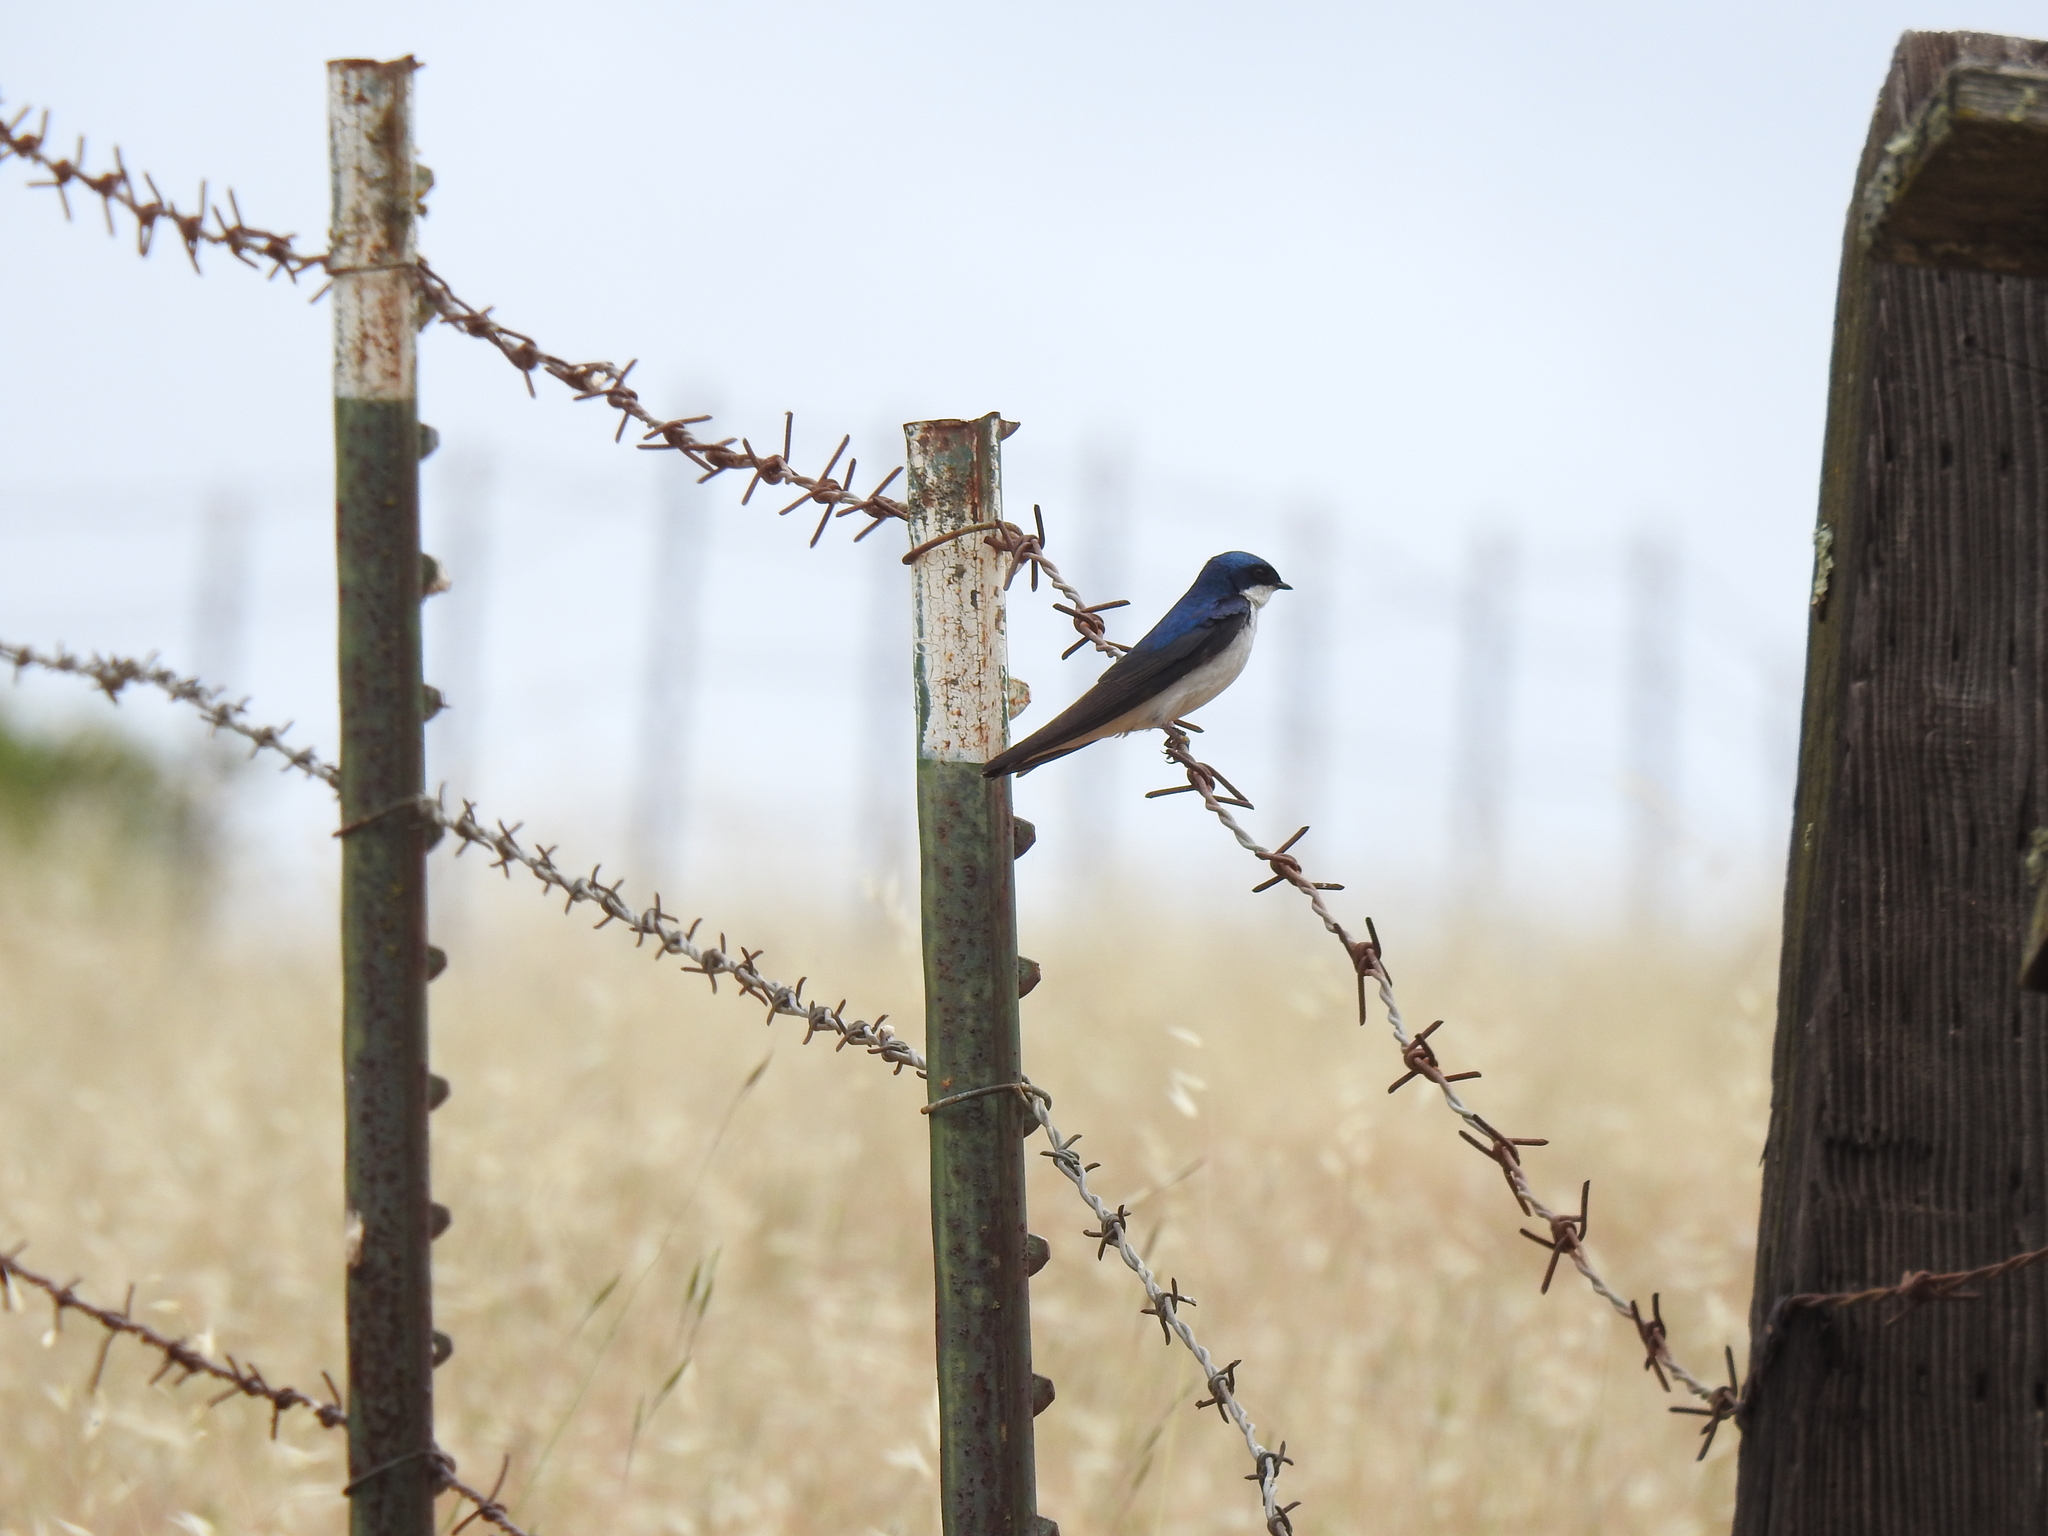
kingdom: Animalia
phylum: Chordata
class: Aves
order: Passeriformes
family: Hirundinidae
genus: Tachycineta
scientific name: Tachycineta bicolor
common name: Tree swallow
